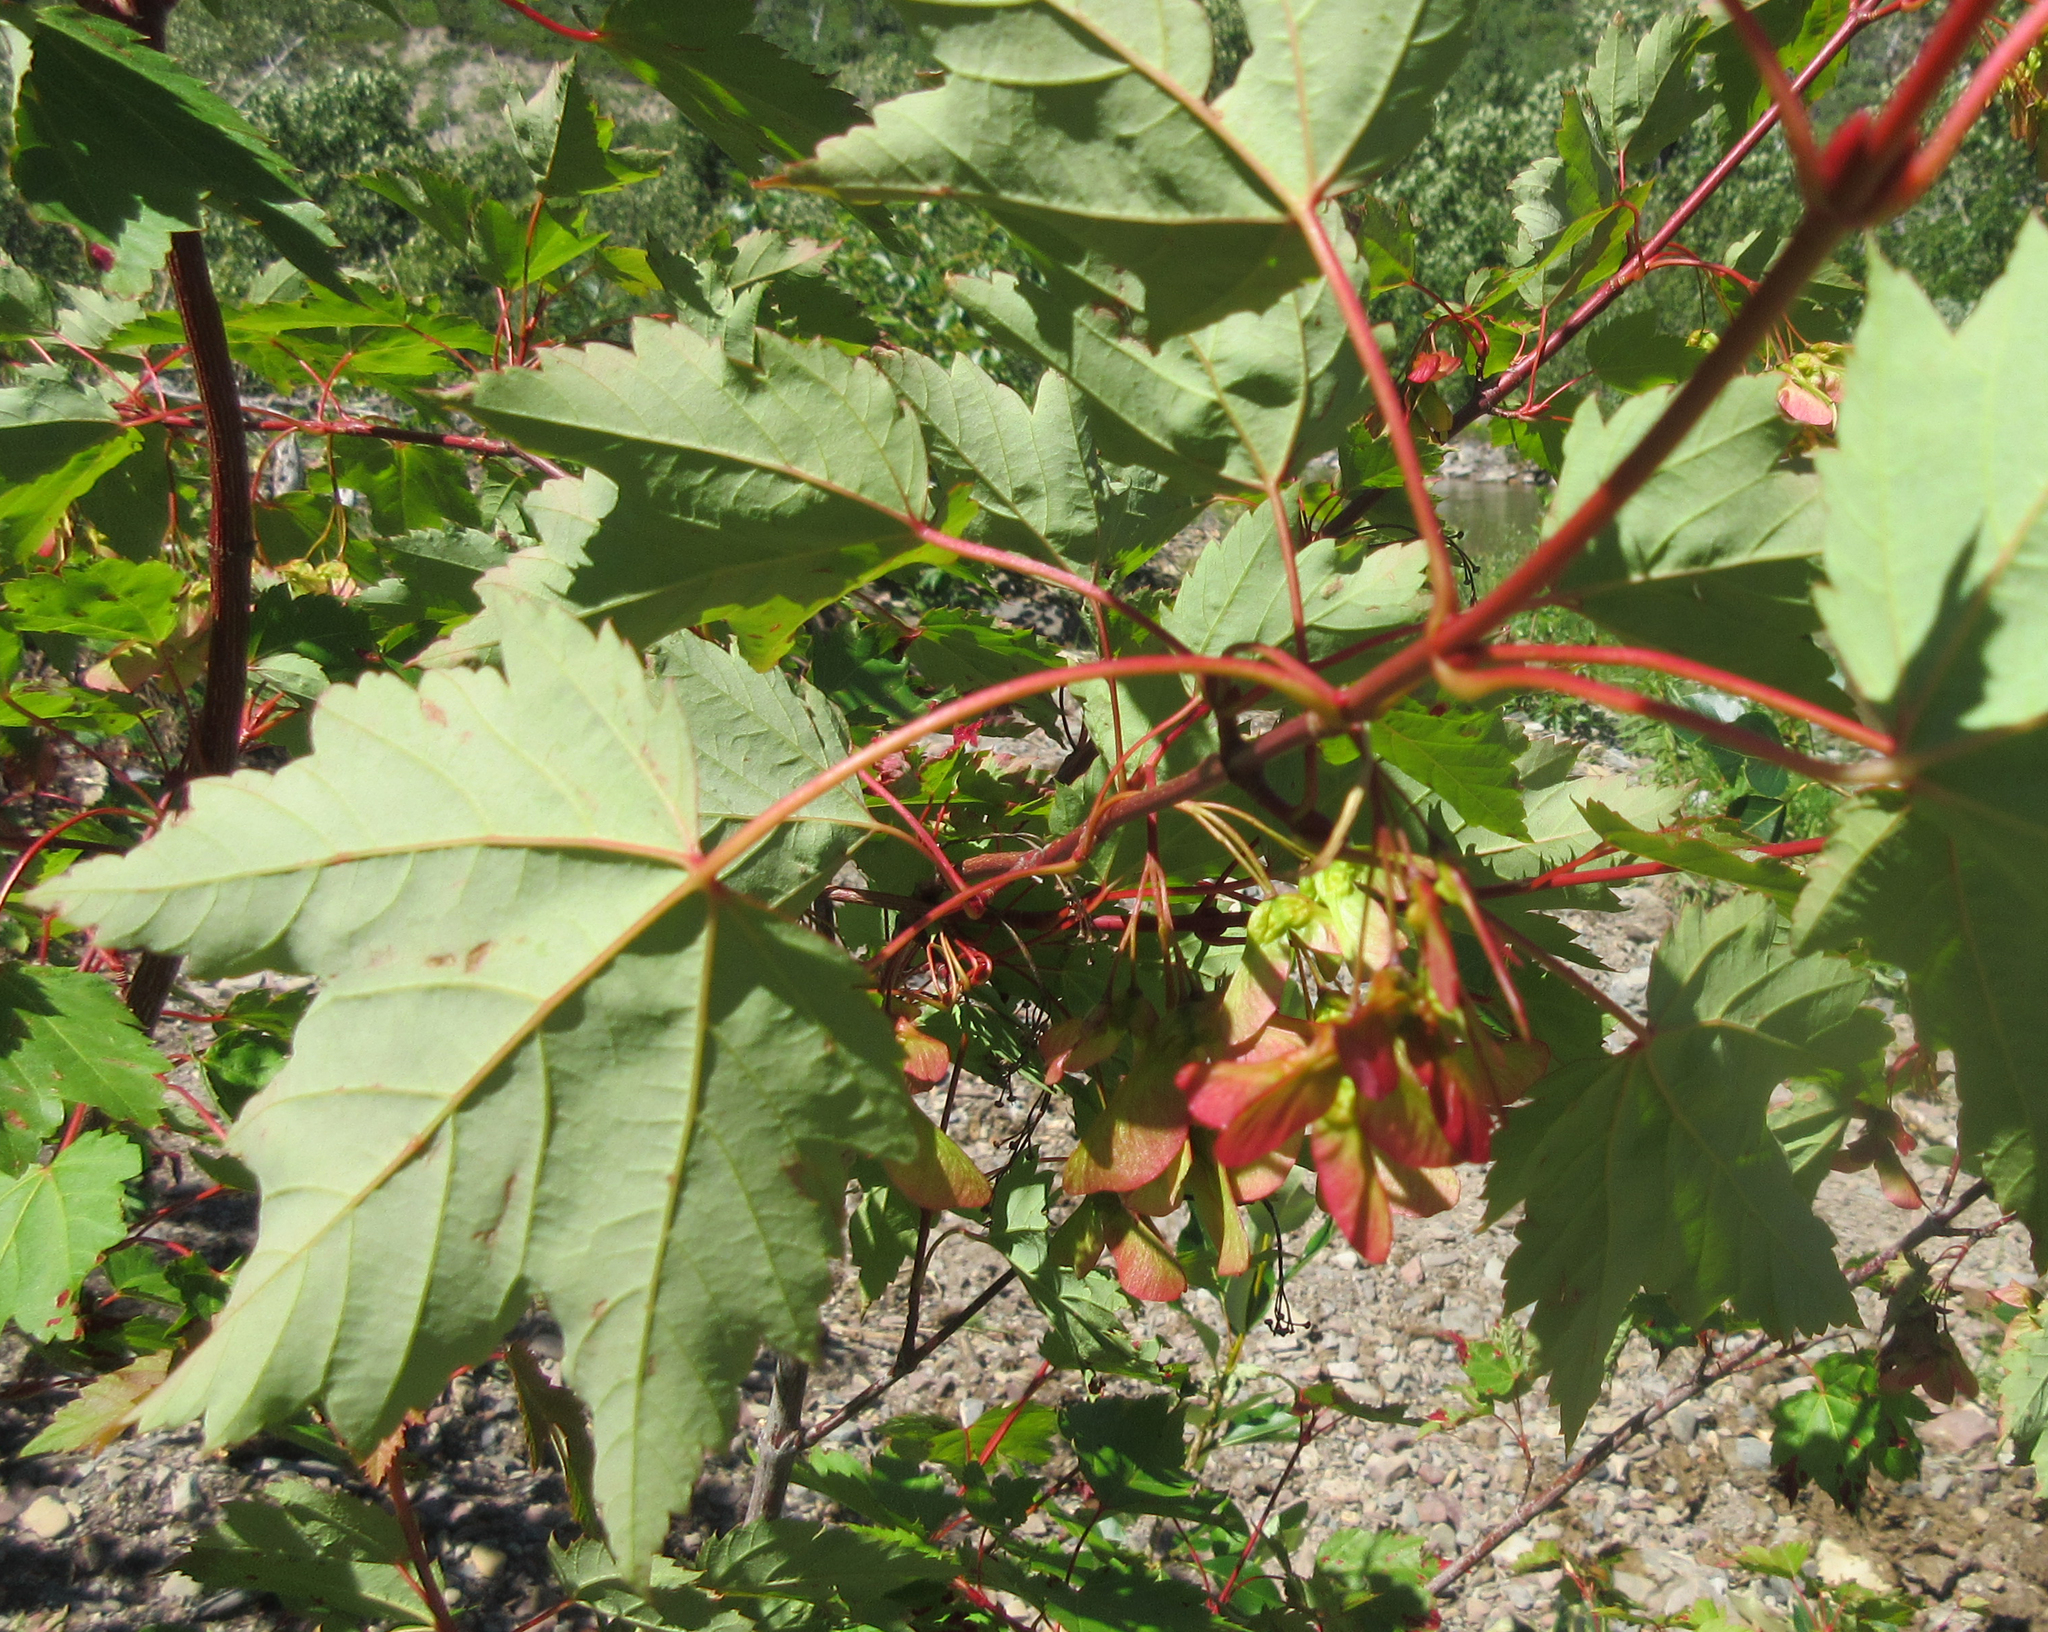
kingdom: Plantae
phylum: Tracheophyta
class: Magnoliopsida
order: Sapindales
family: Sapindaceae
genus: Acer
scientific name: Acer glabrum
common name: Rocky mountain maple
